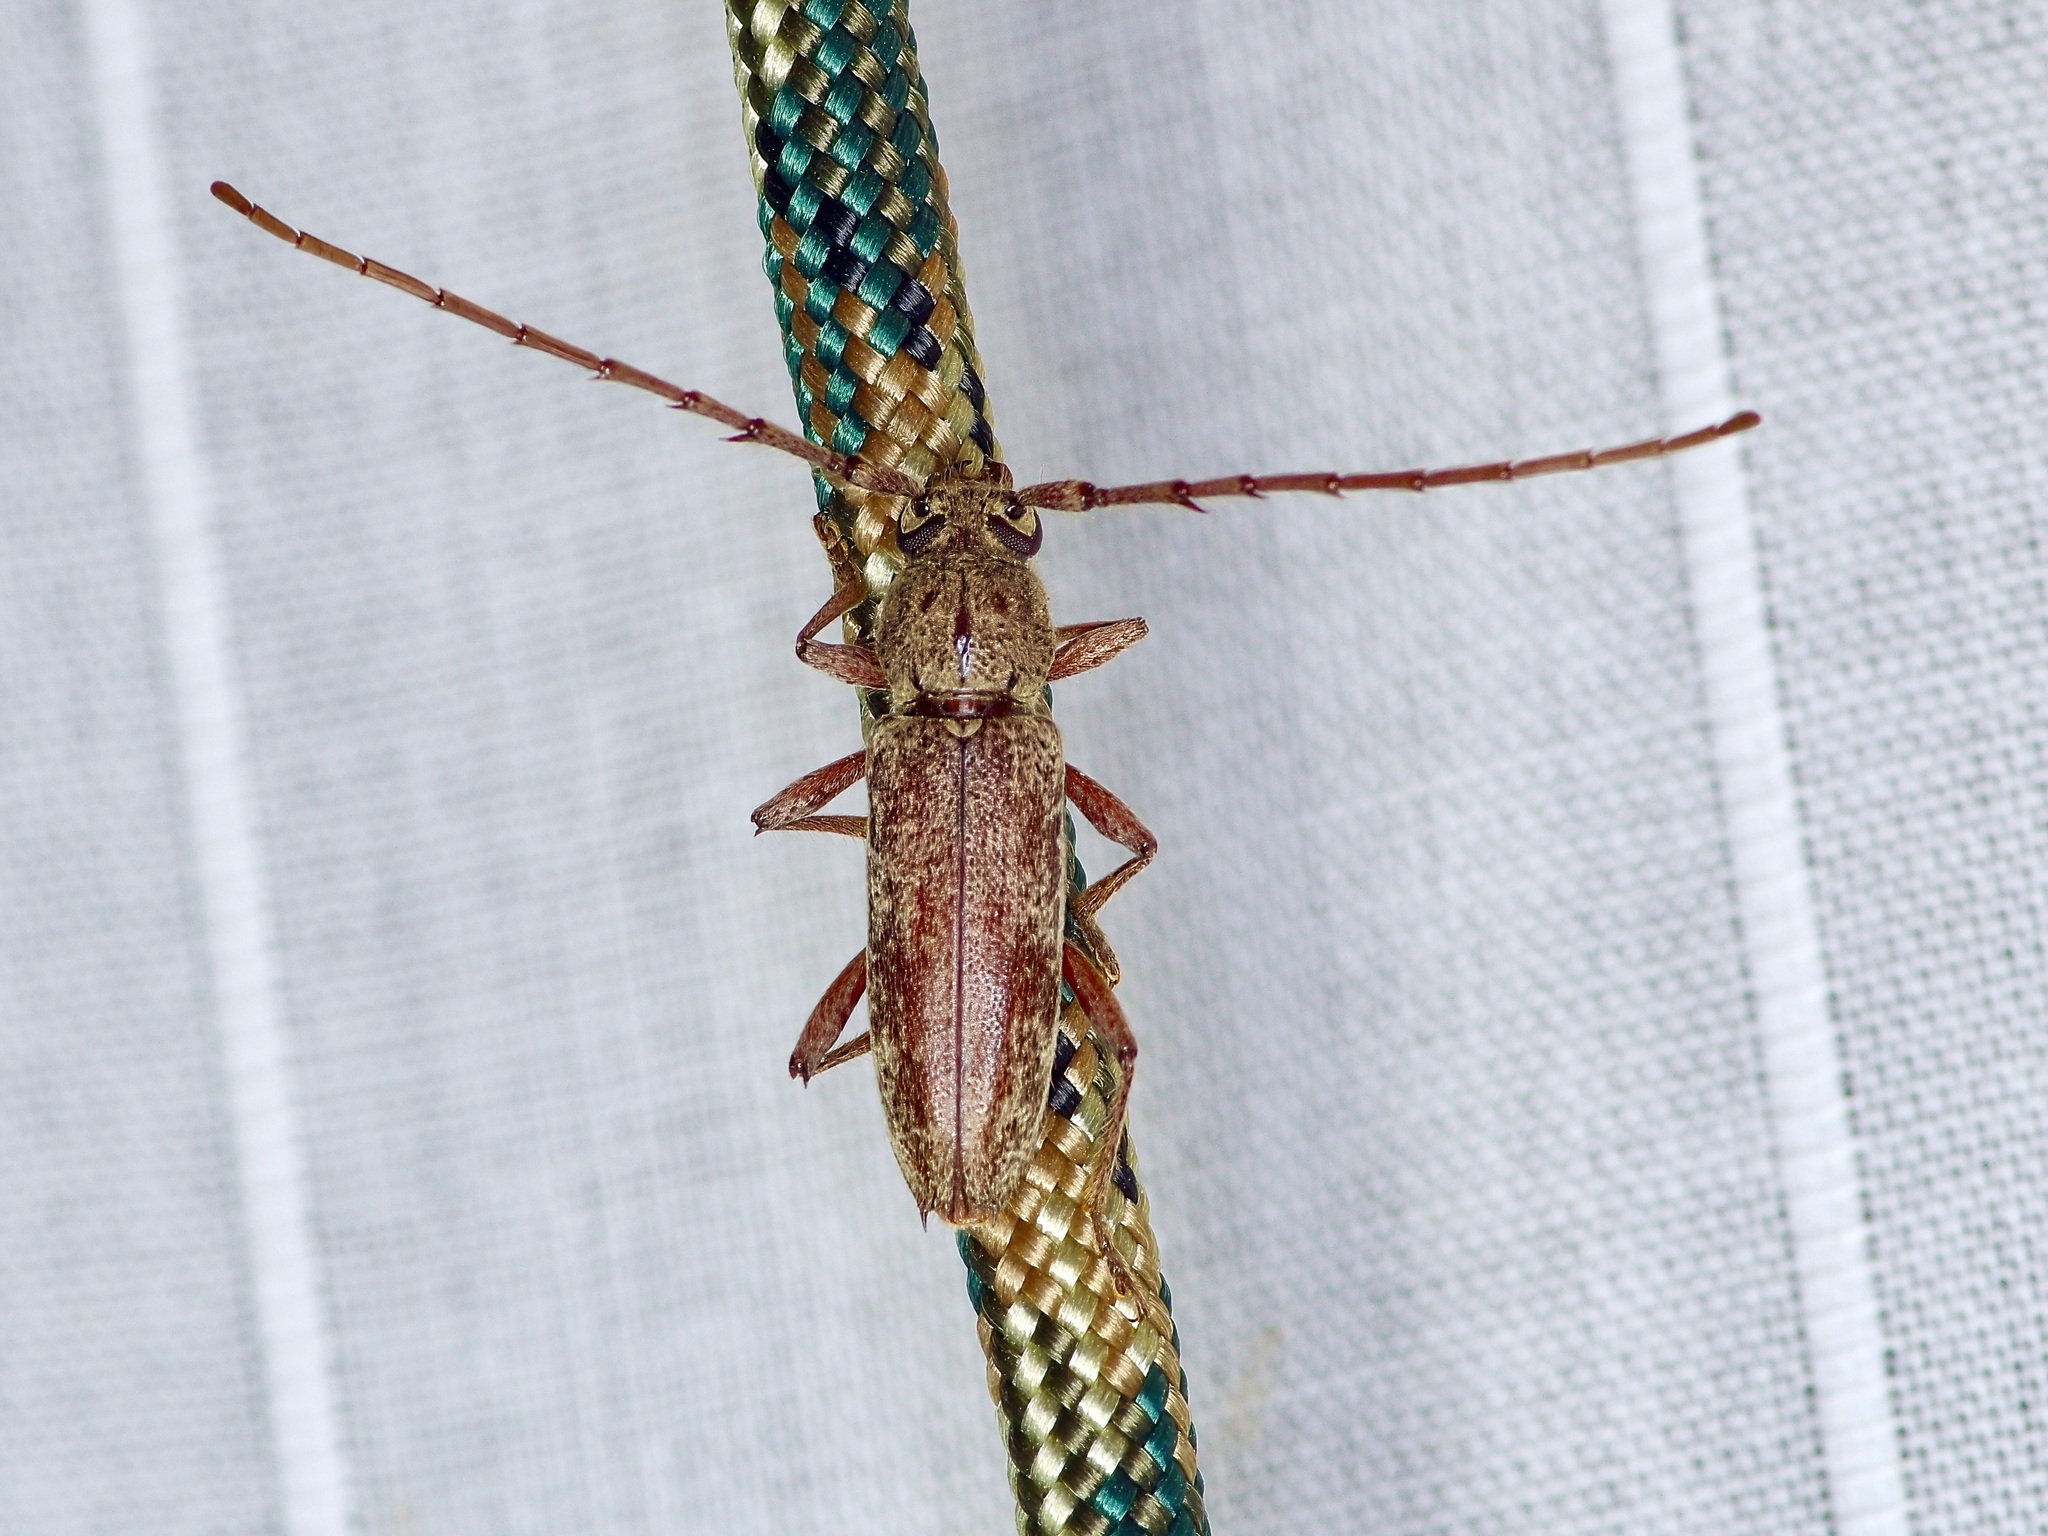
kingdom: Animalia
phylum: Arthropoda
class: Insecta
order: Coleoptera
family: Cerambycidae
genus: Anelaphus
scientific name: Anelaphus villosus
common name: Twig pruner
